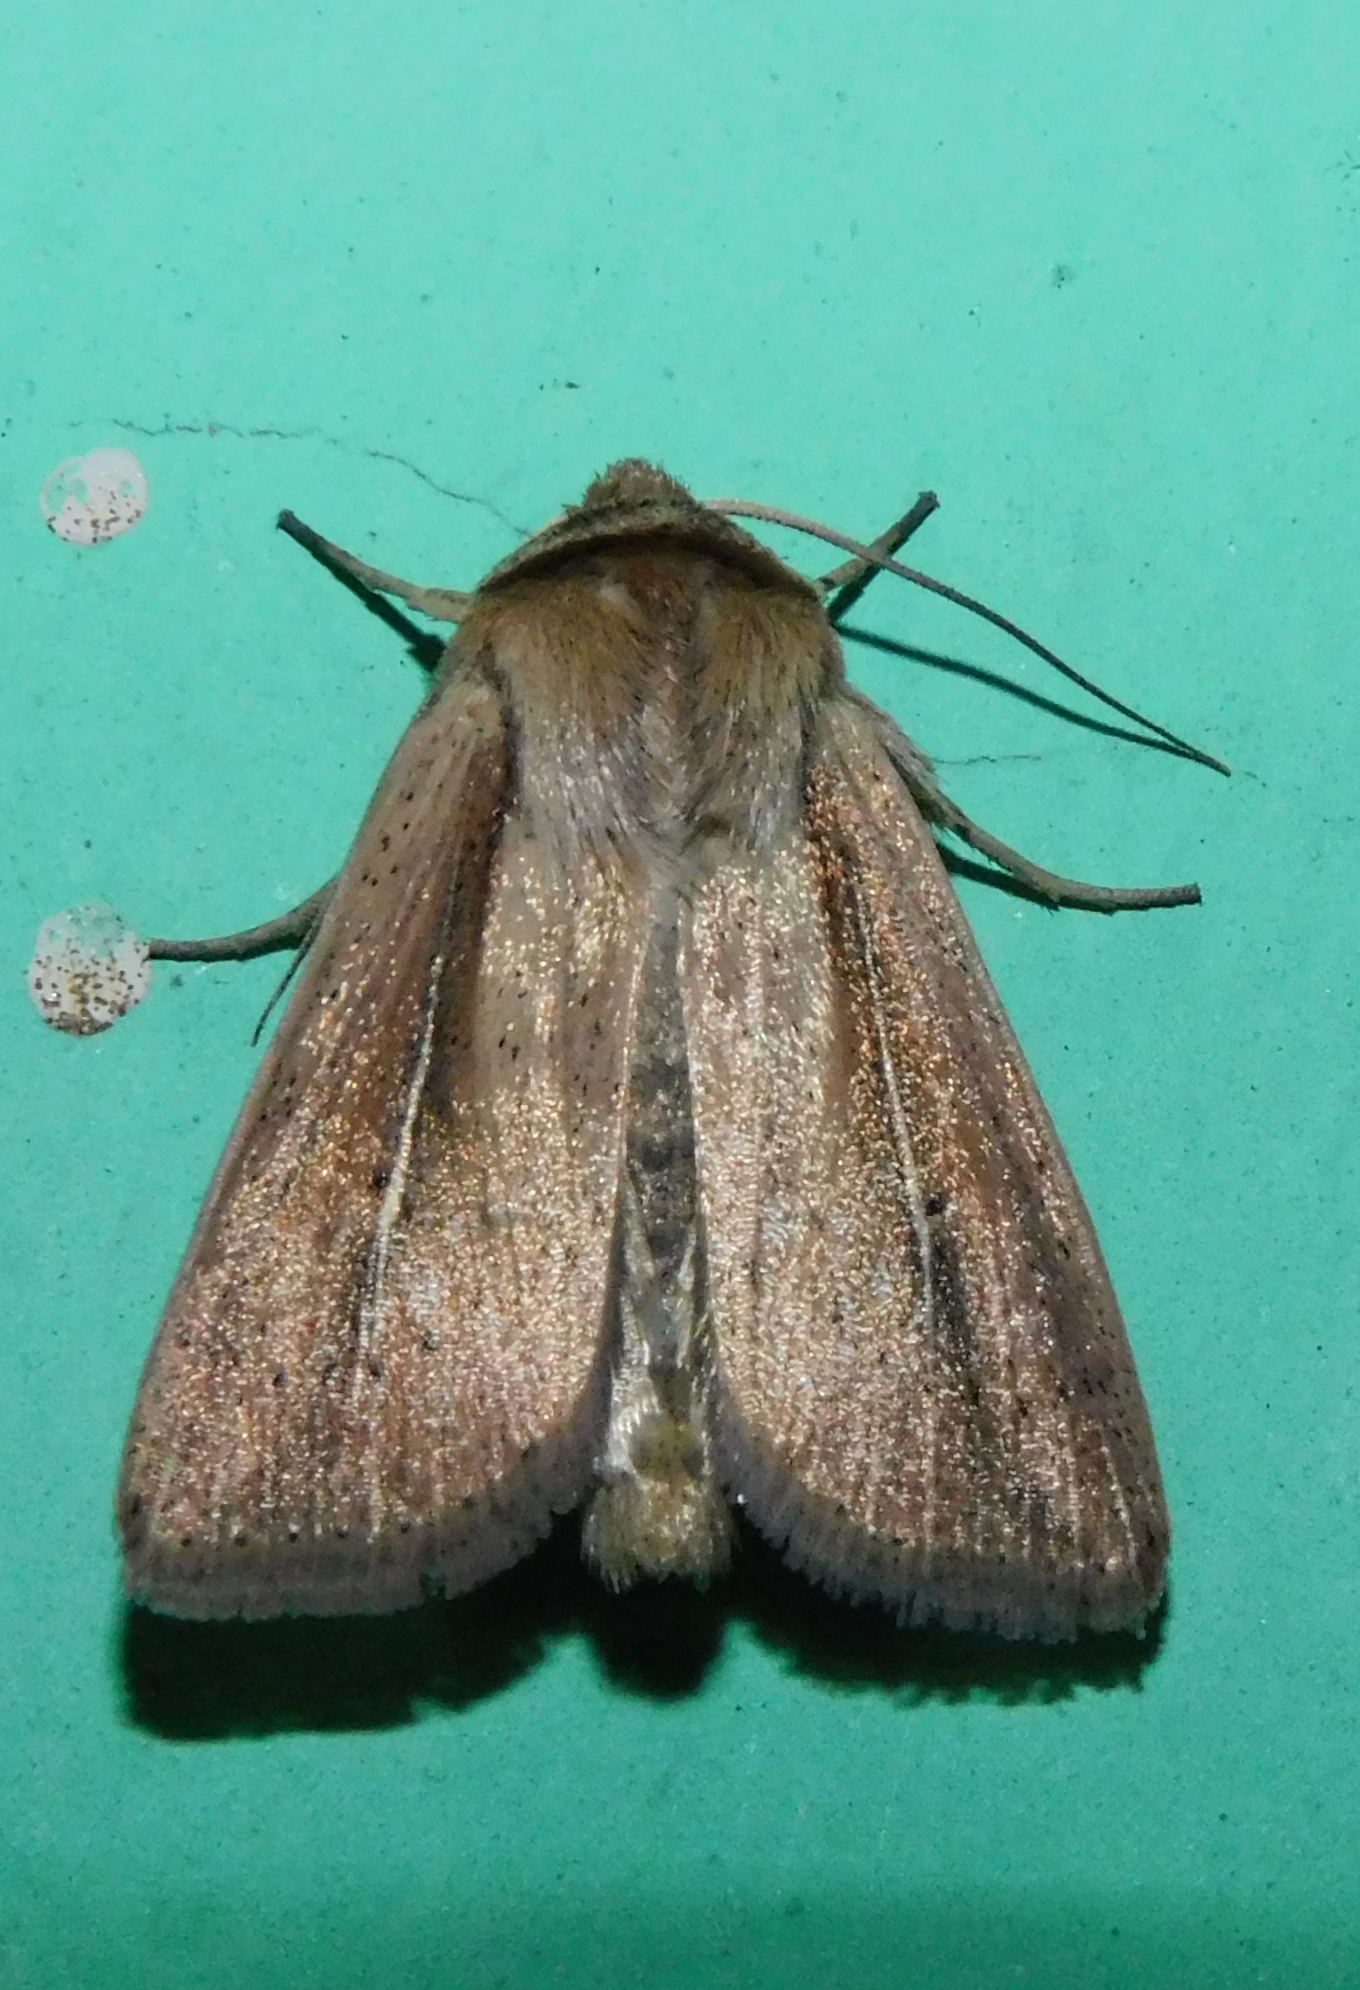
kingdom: Animalia
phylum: Arthropoda
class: Insecta
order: Lepidoptera
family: Noctuidae
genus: Mythimna
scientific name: Mythimna nainica
